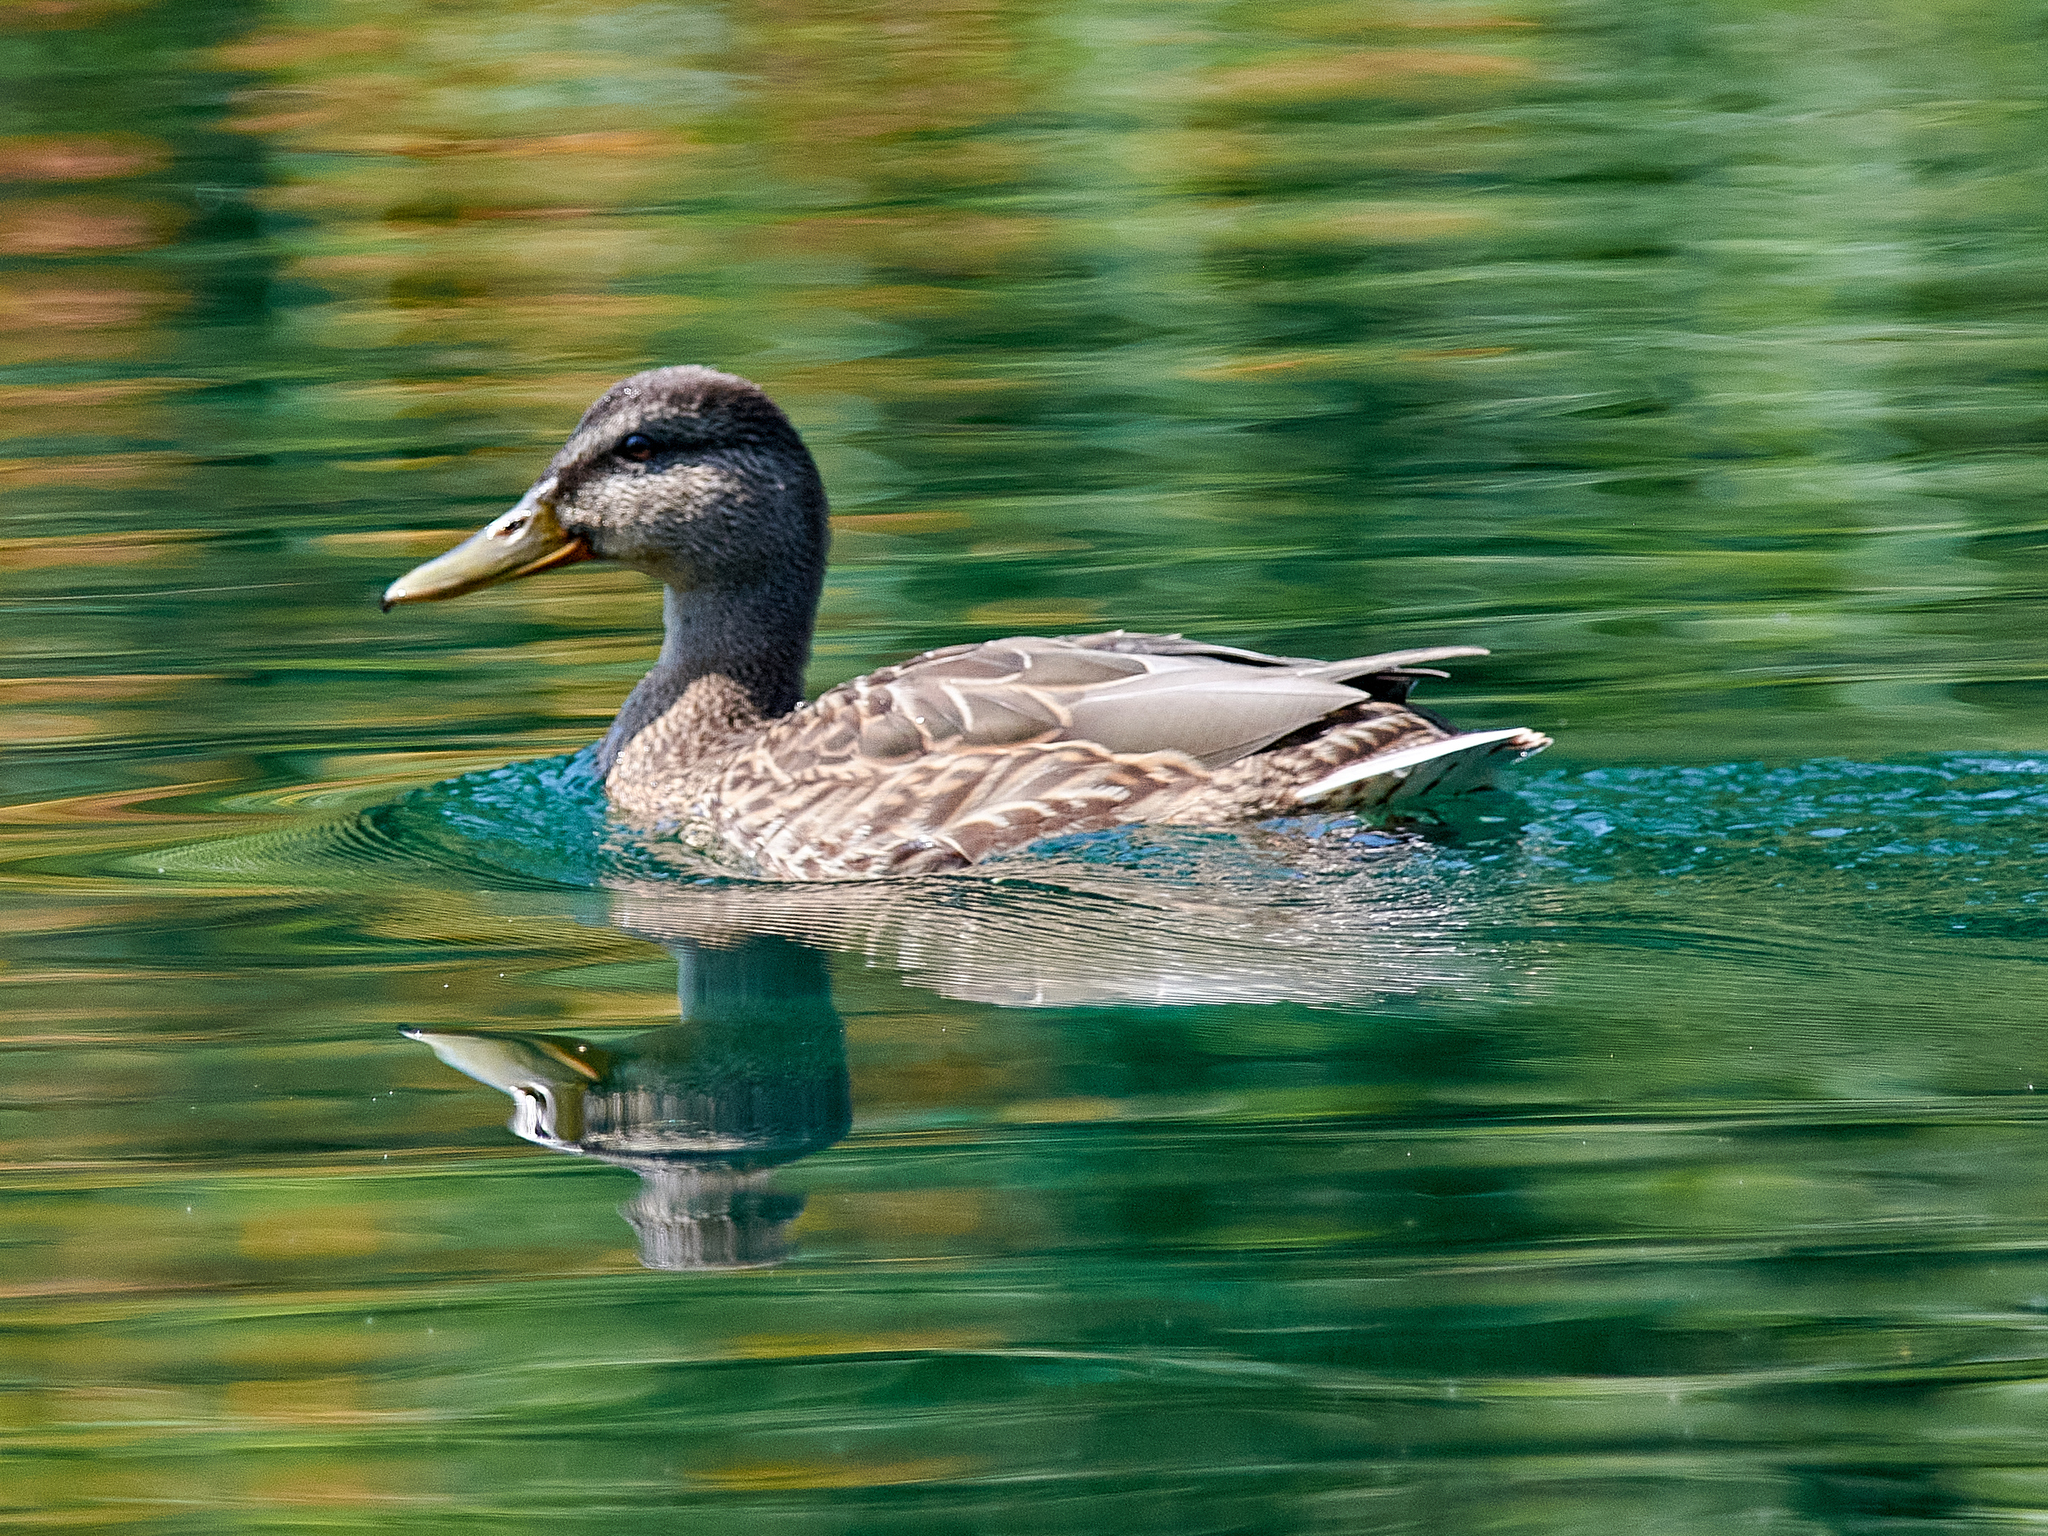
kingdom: Animalia
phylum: Chordata
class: Aves
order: Anseriformes
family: Anatidae
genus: Anas
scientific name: Anas platyrhynchos
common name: Mallard
